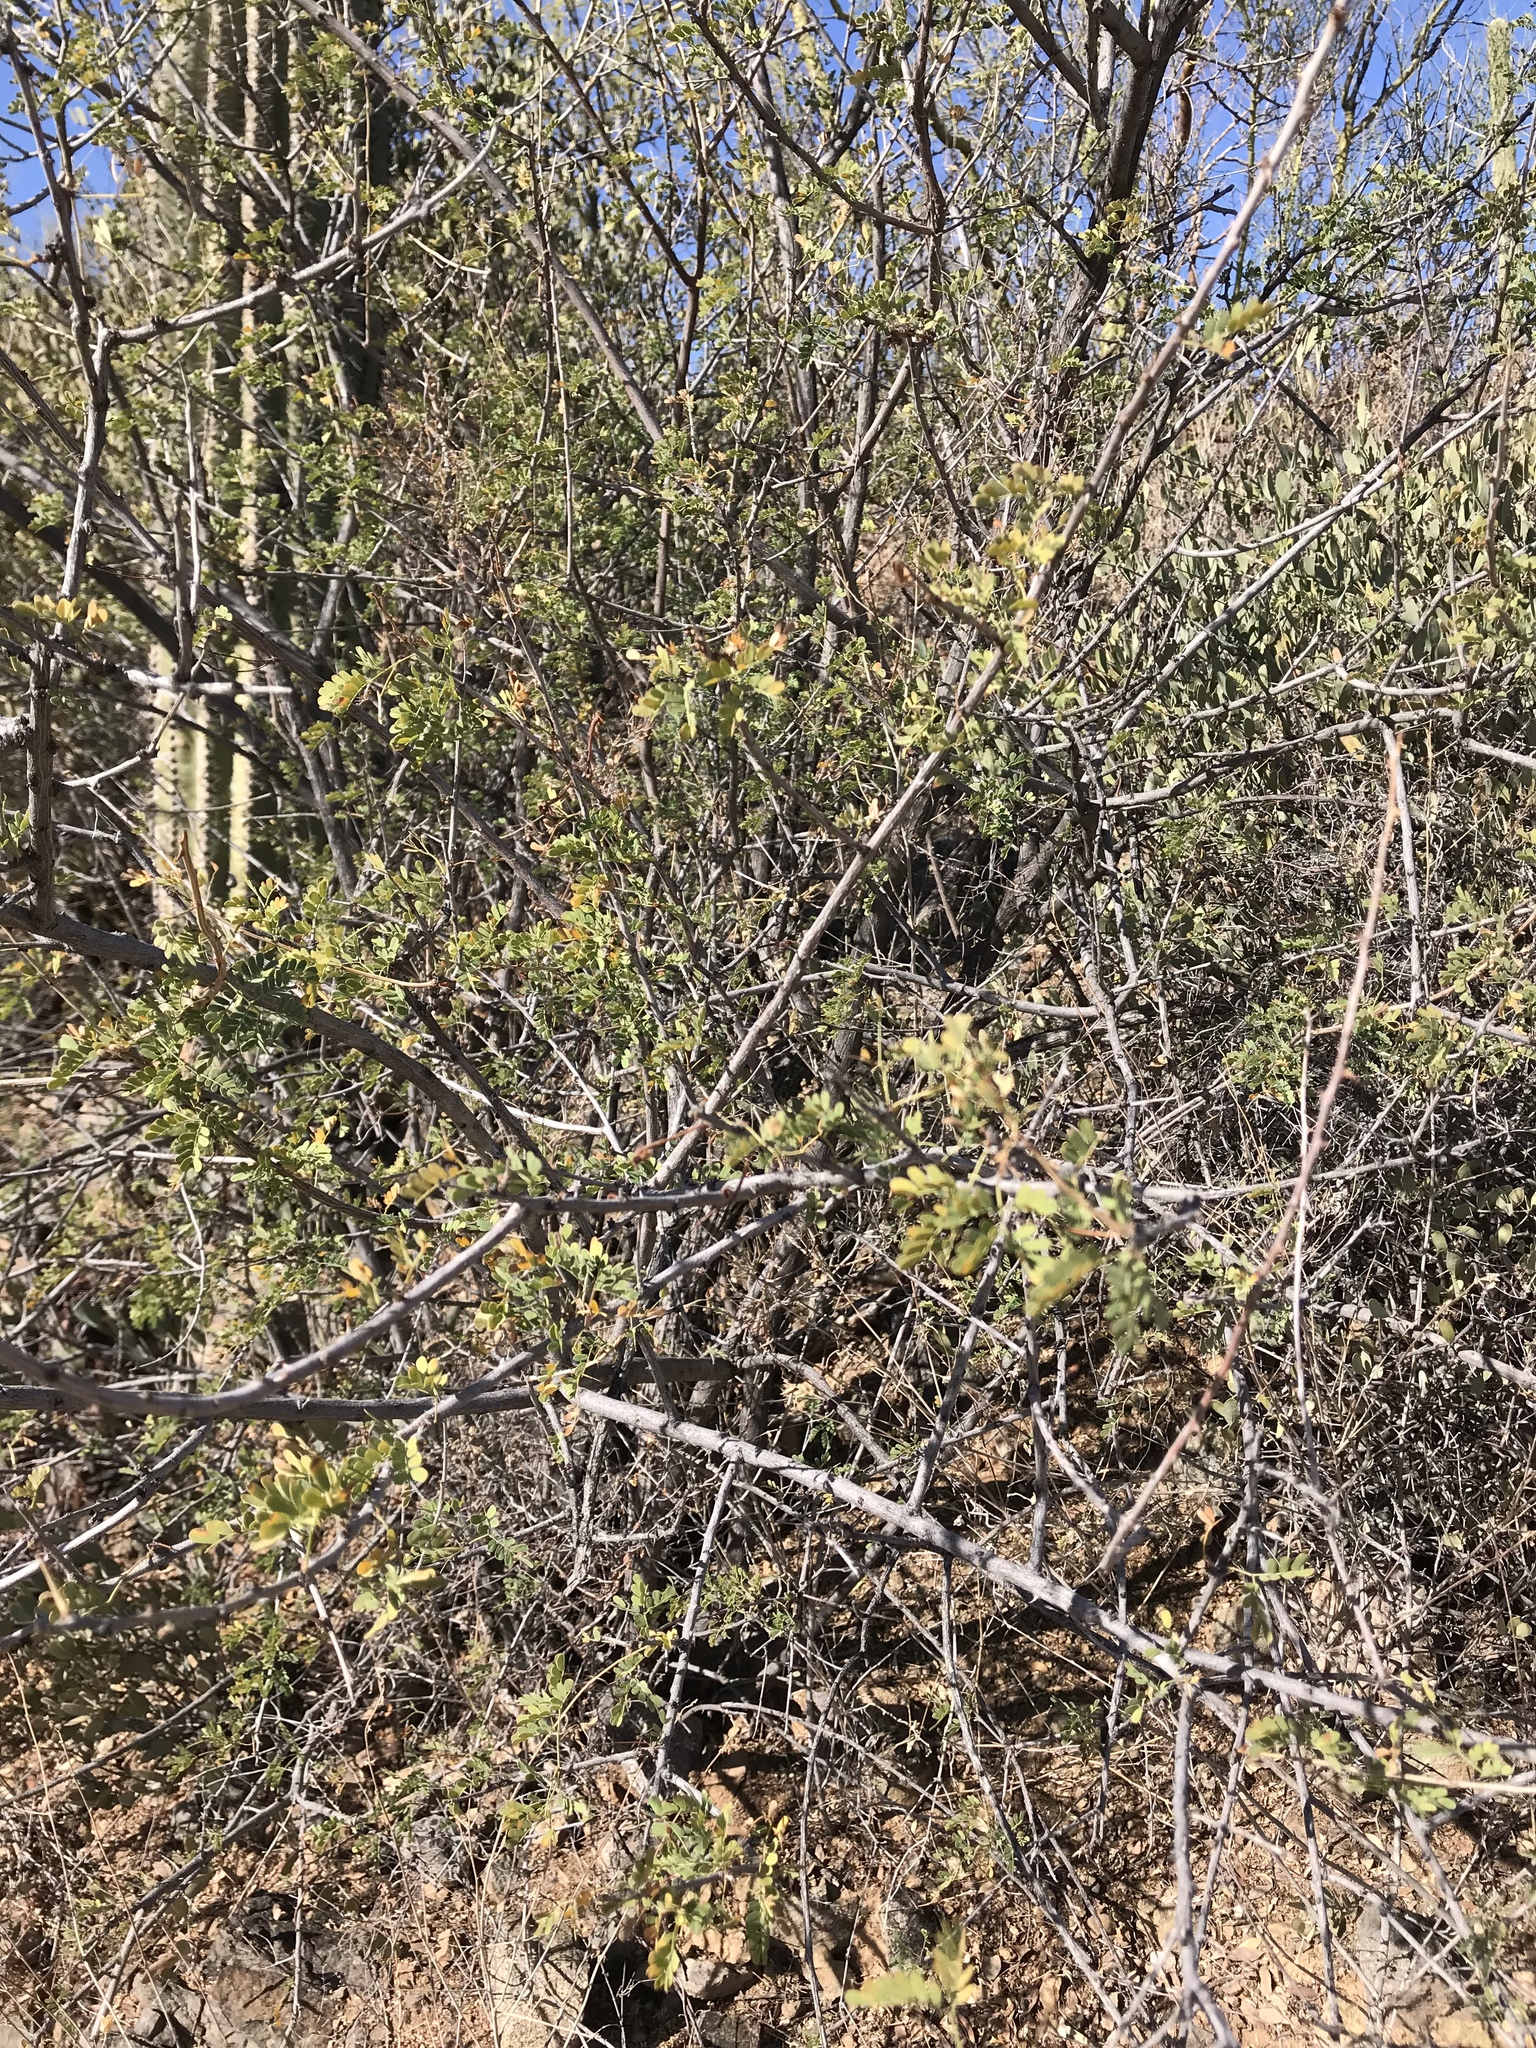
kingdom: Plantae
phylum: Tracheophyta
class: Magnoliopsida
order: Fabales
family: Fabaceae
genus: Senegalia
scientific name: Senegalia greggii
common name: Texas-mimosa
